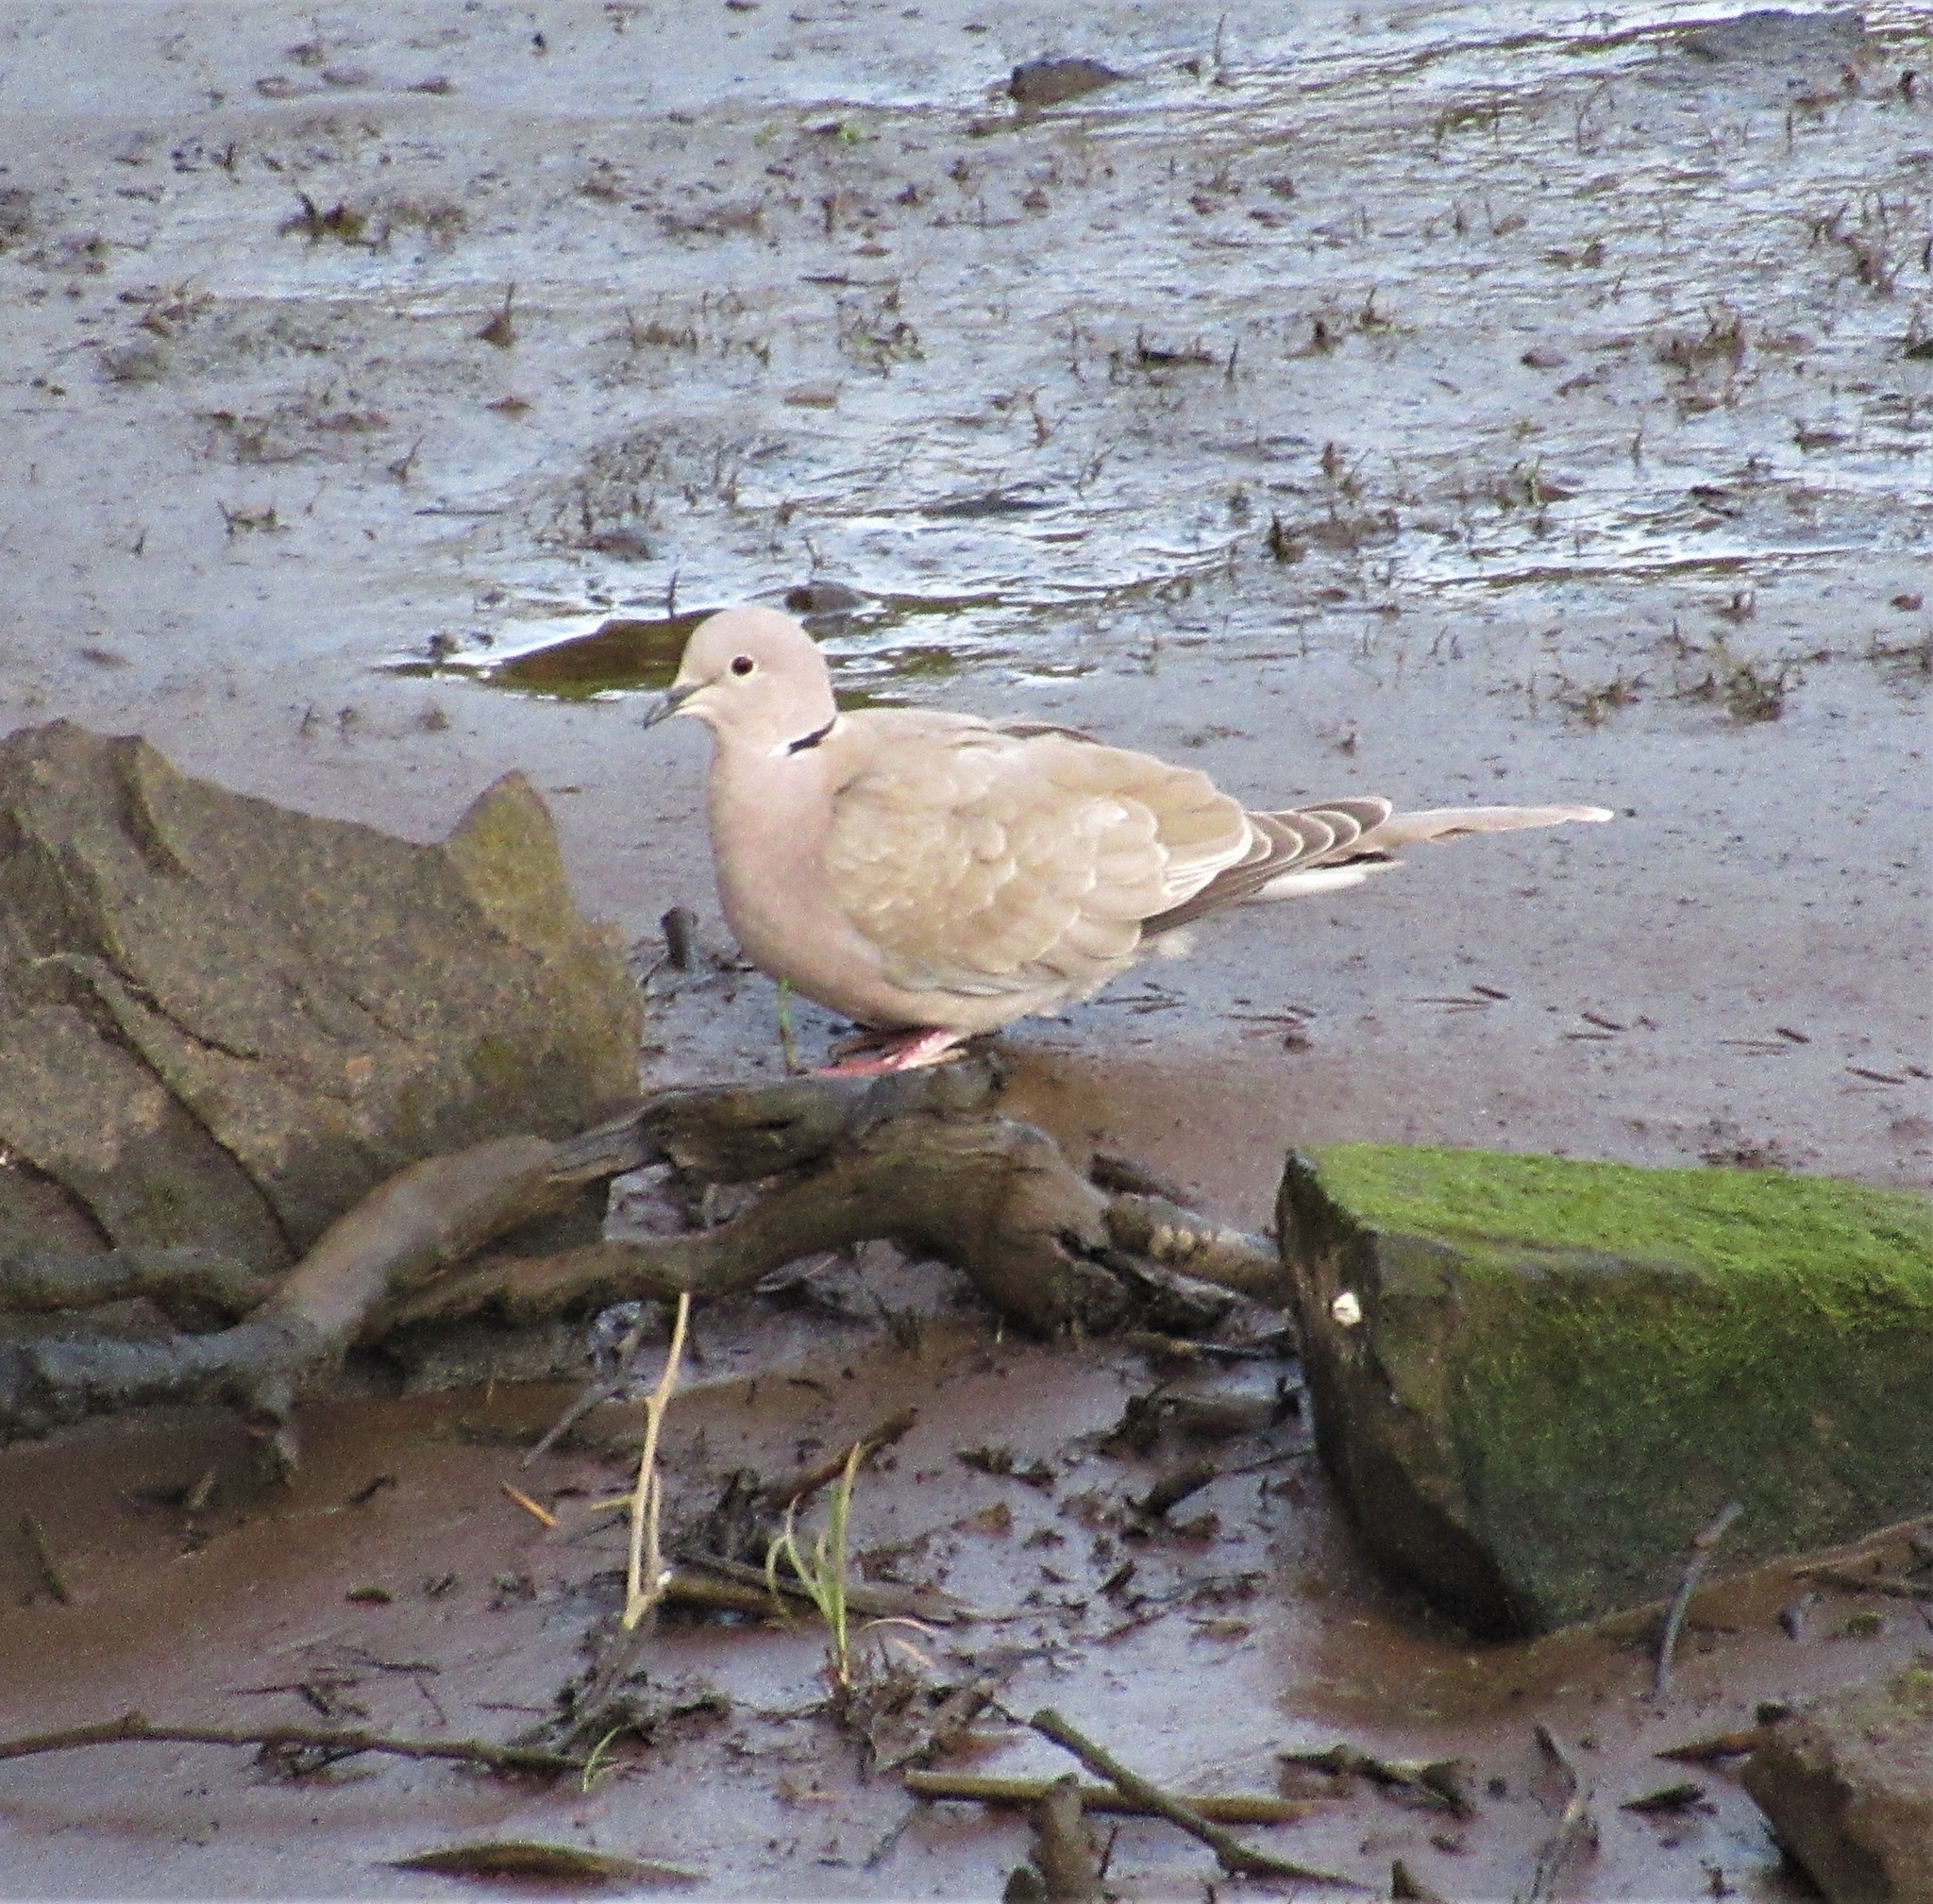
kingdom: Animalia
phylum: Chordata
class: Aves
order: Columbiformes
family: Columbidae
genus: Streptopelia
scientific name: Streptopelia decaocto
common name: Eurasian collared dove
